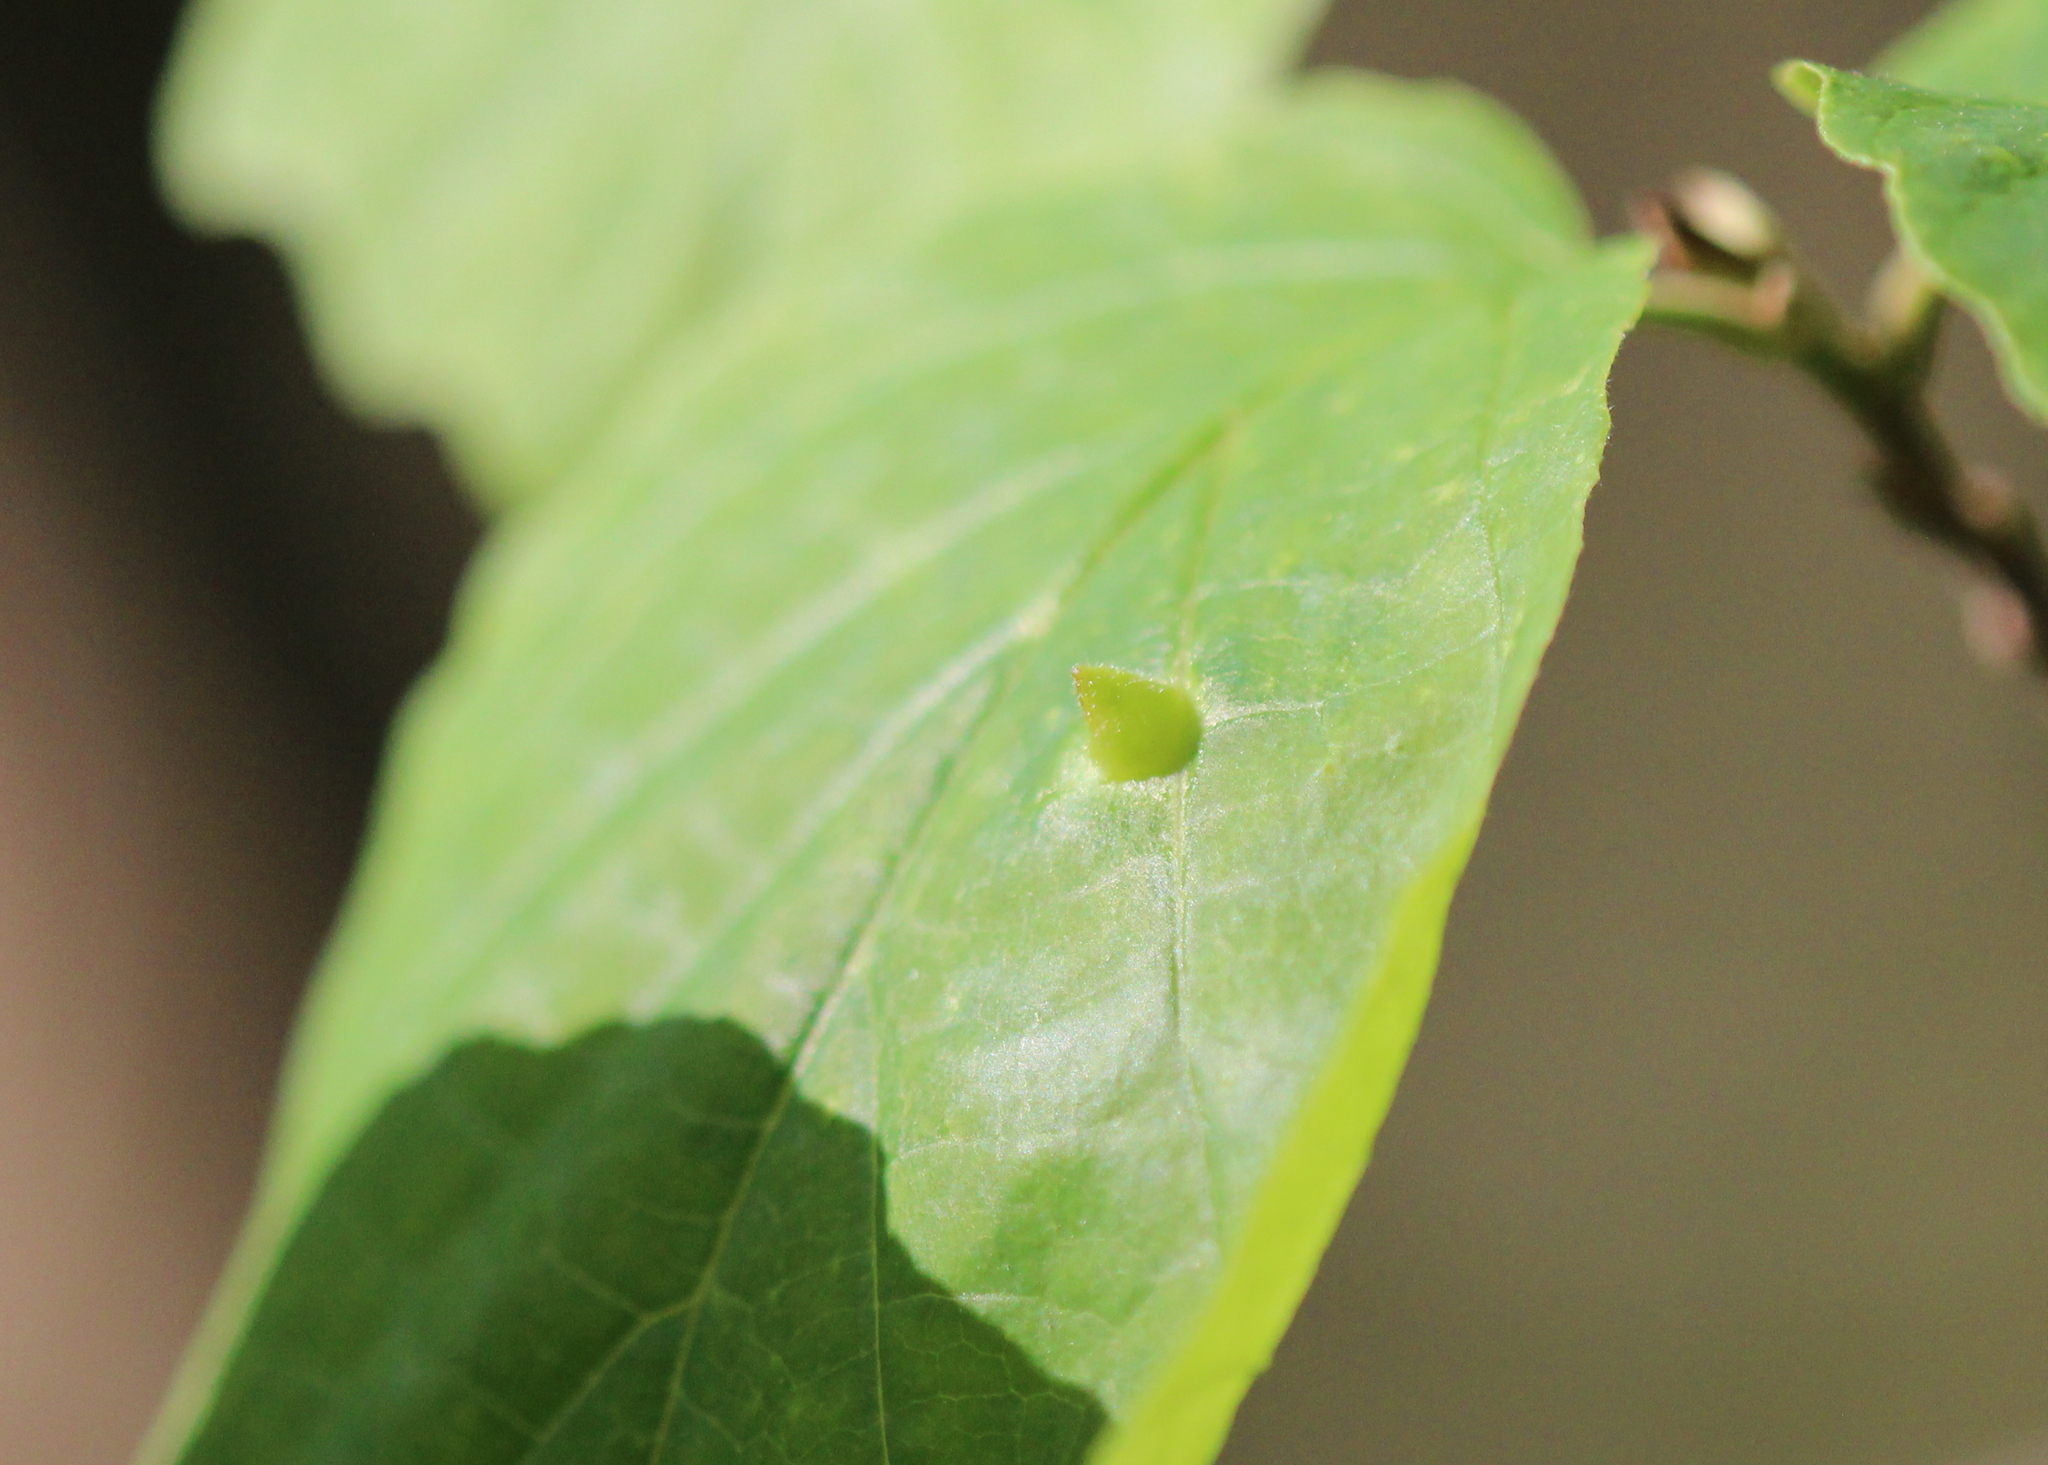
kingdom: Animalia
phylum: Arthropoda
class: Insecta
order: Hemiptera
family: Aphididae
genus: Hormaphis
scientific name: Hormaphis hamamelidis
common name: Witch-hazel cone gall aphid
